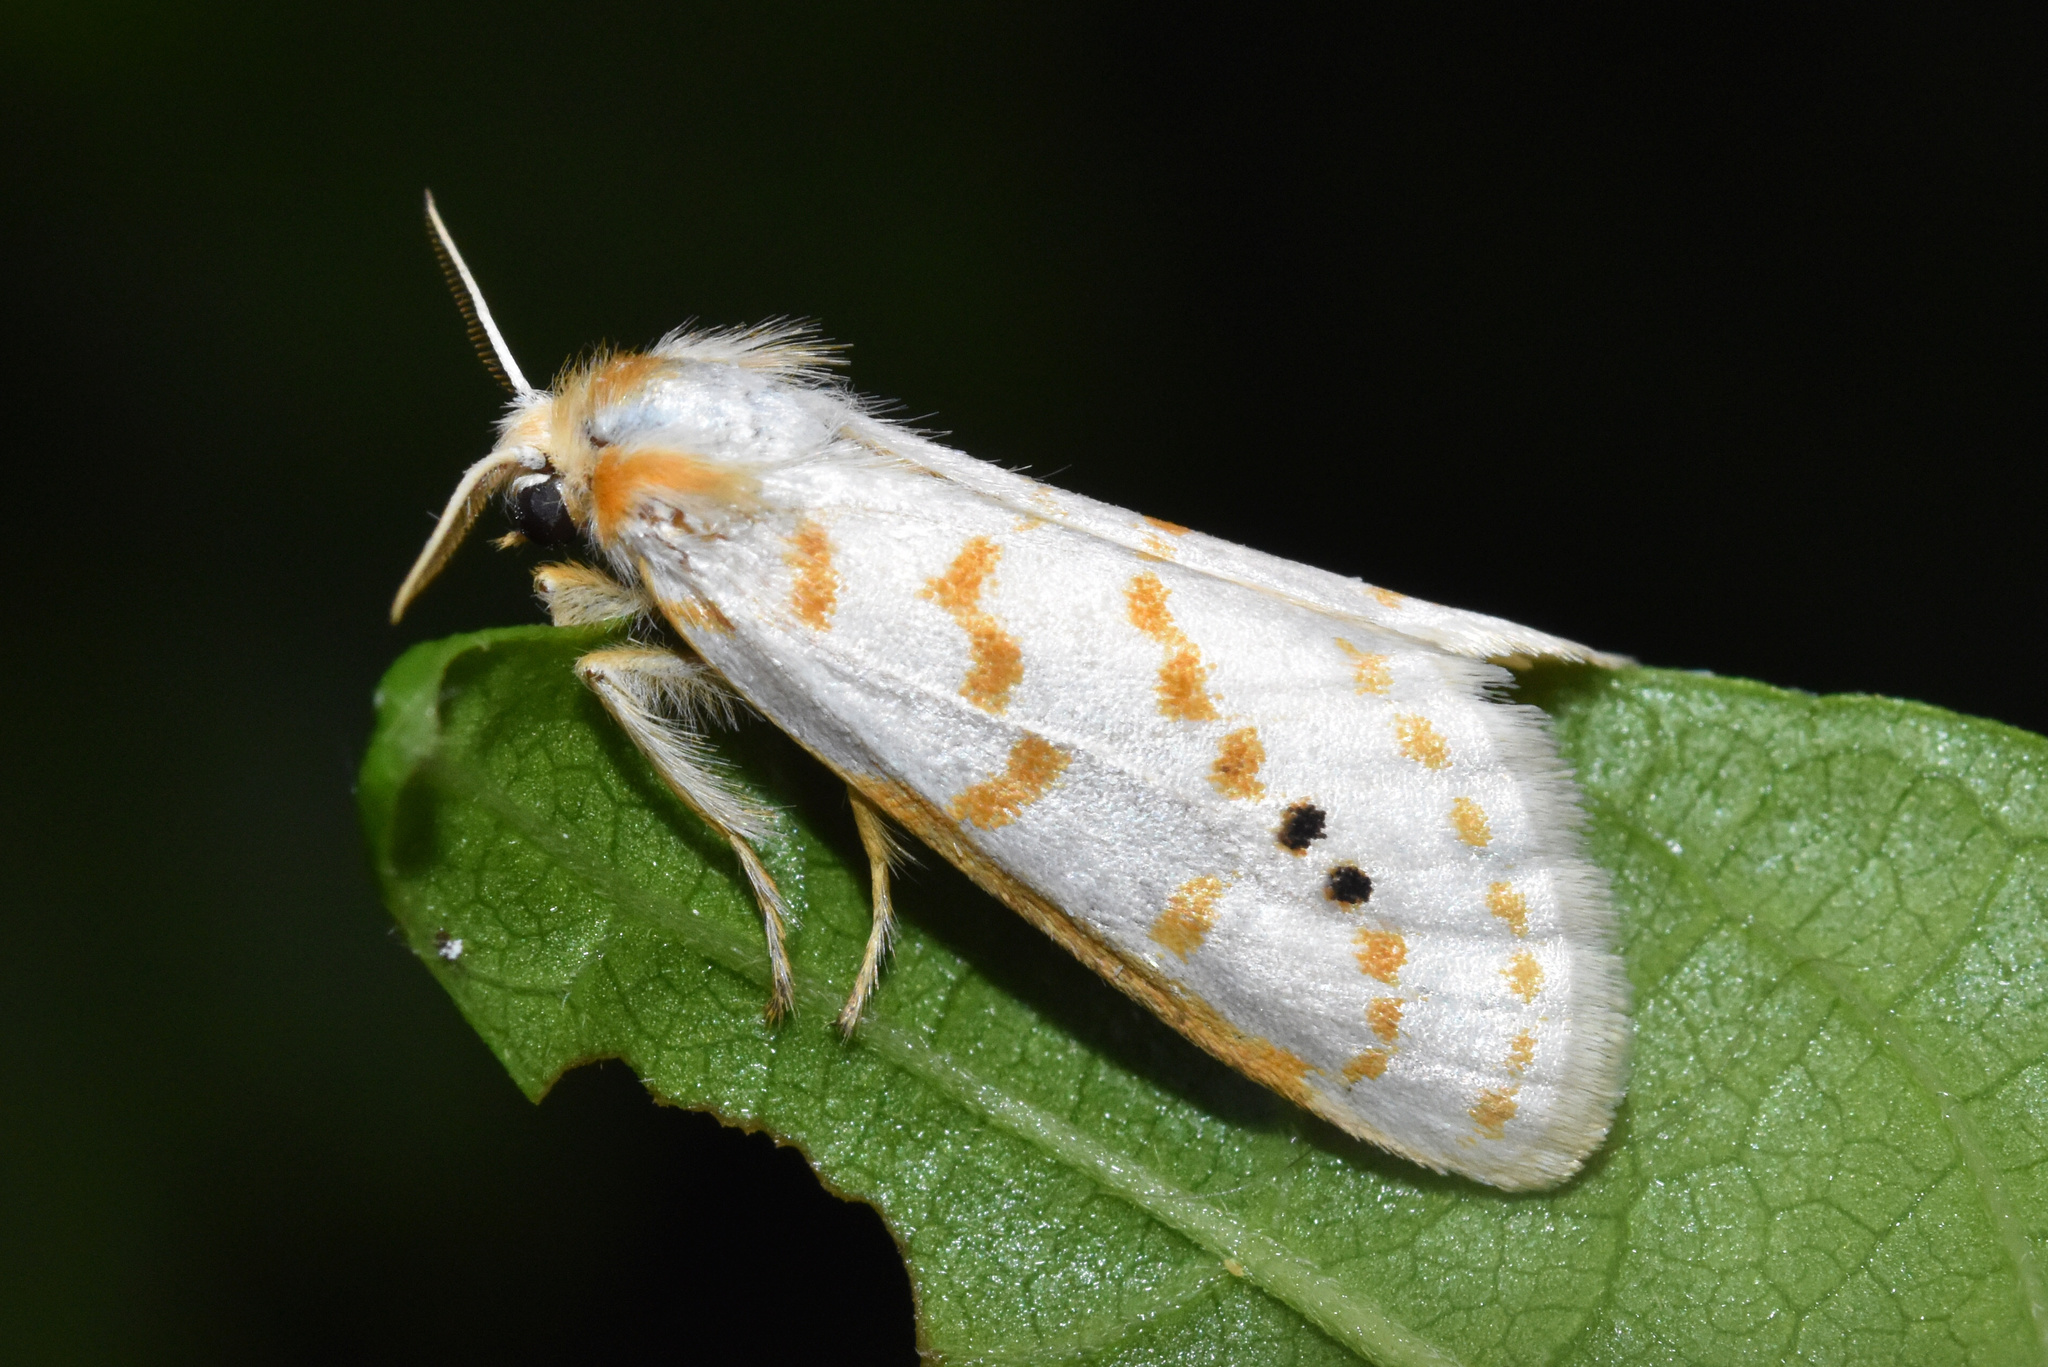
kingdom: Animalia
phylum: Arthropoda
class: Insecta
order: Lepidoptera
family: Erebidae
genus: Lacipa
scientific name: Lacipa nobilis
